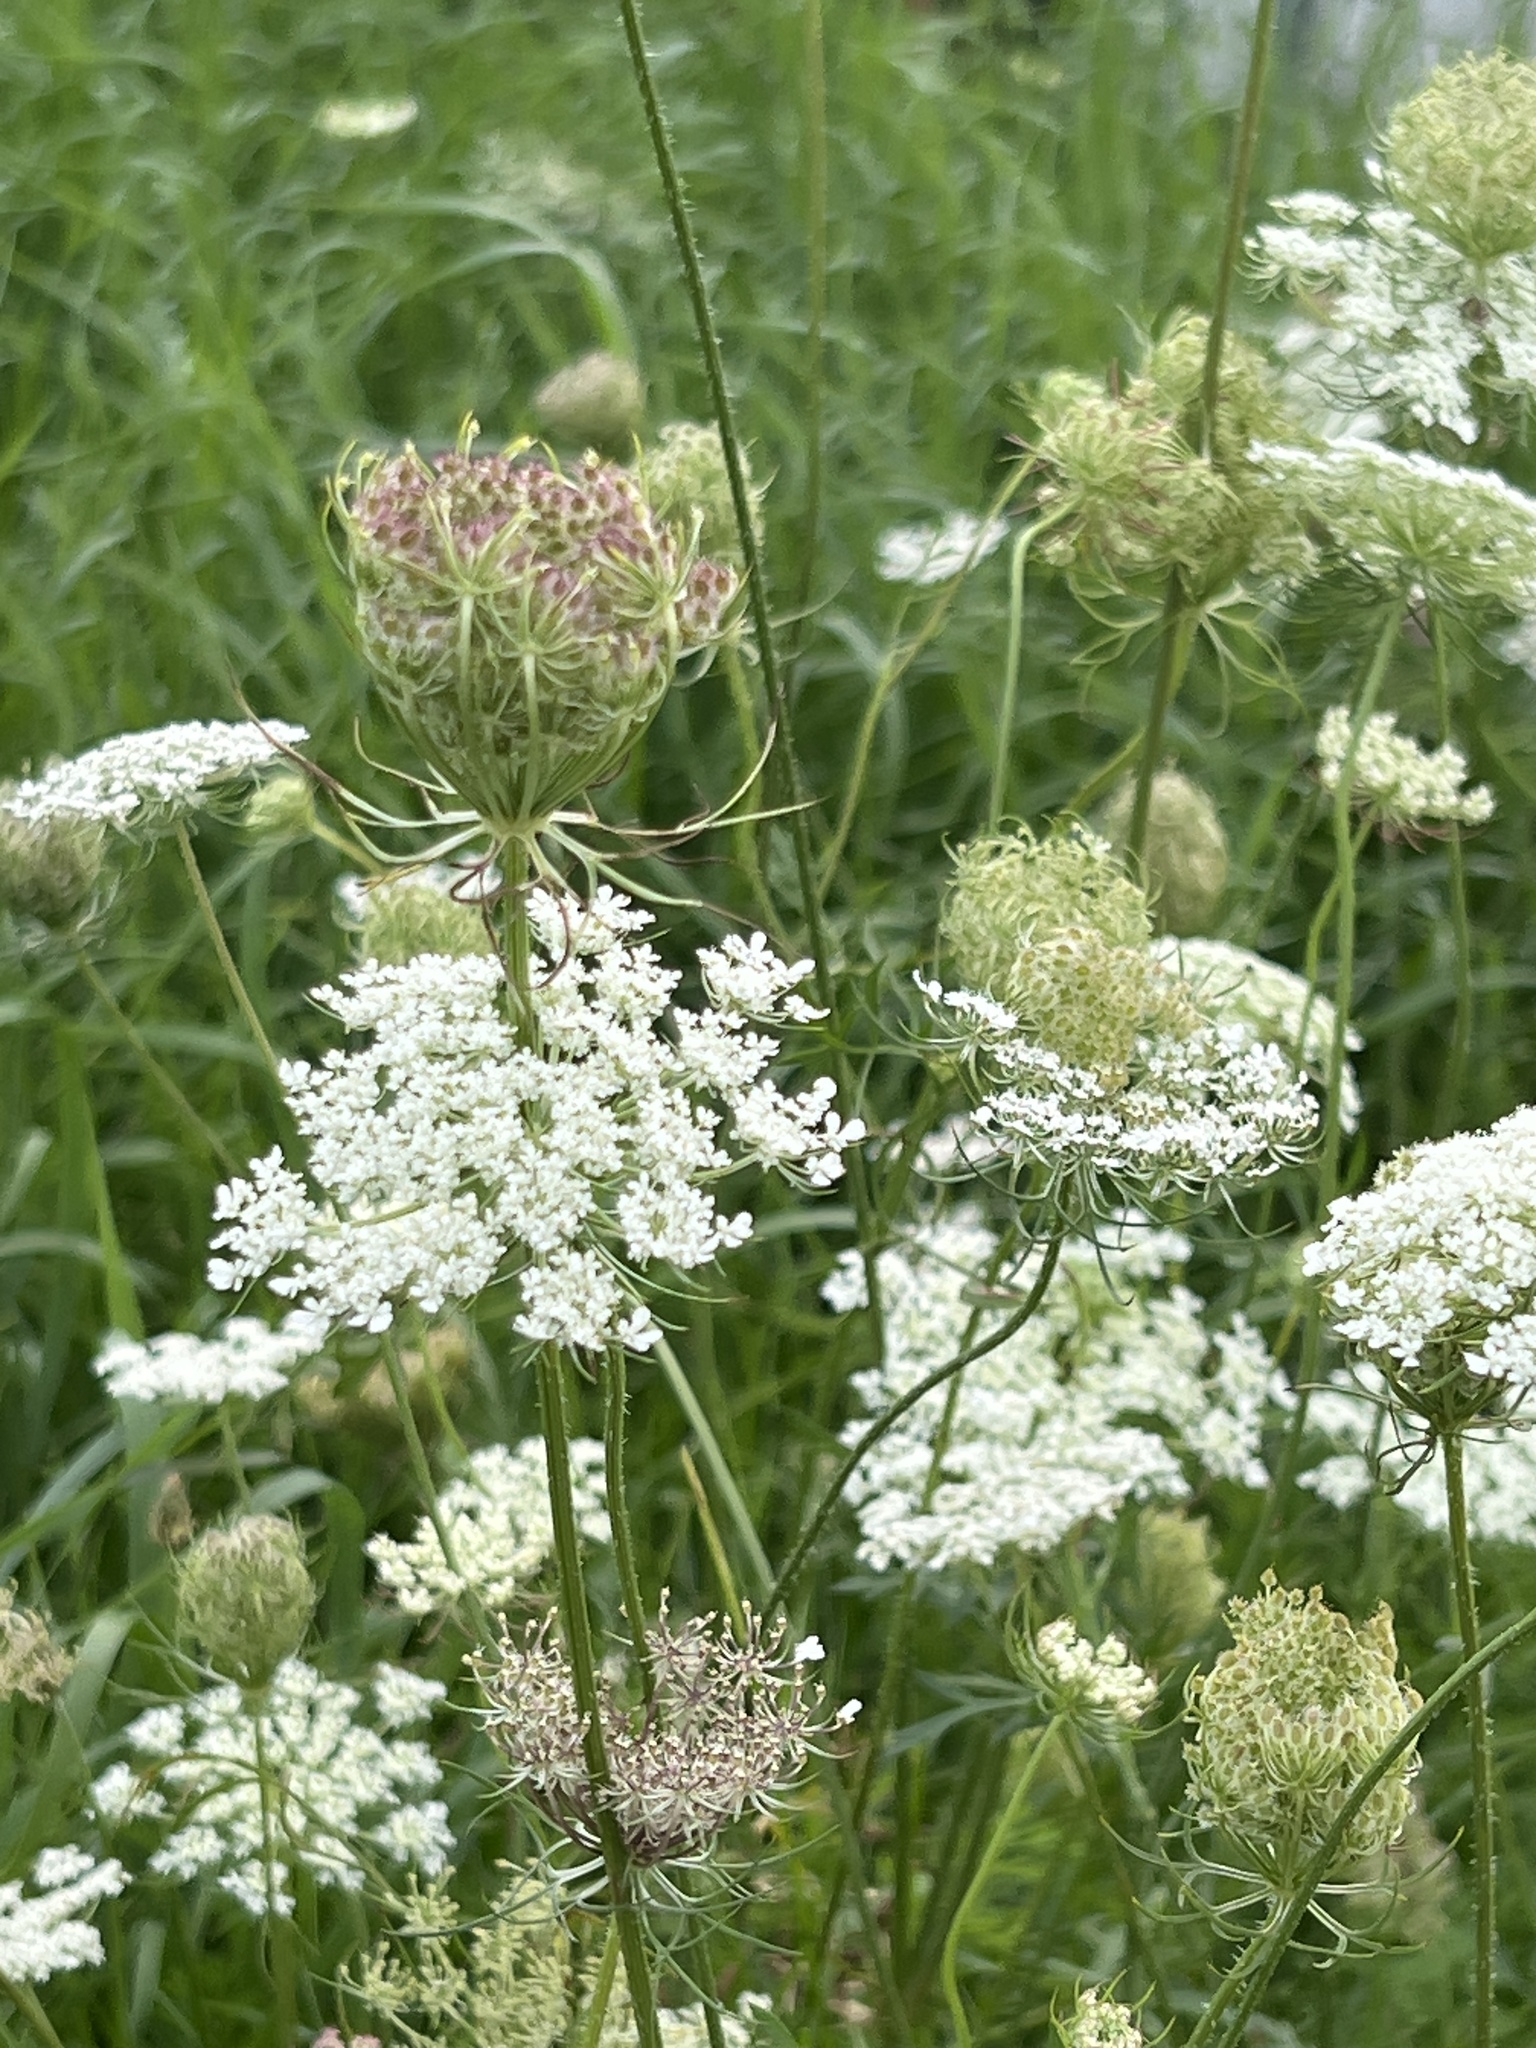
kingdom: Plantae
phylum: Tracheophyta
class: Magnoliopsida
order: Apiales
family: Apiaceae
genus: Daucus
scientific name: Daucus carota
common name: Wild carrot
